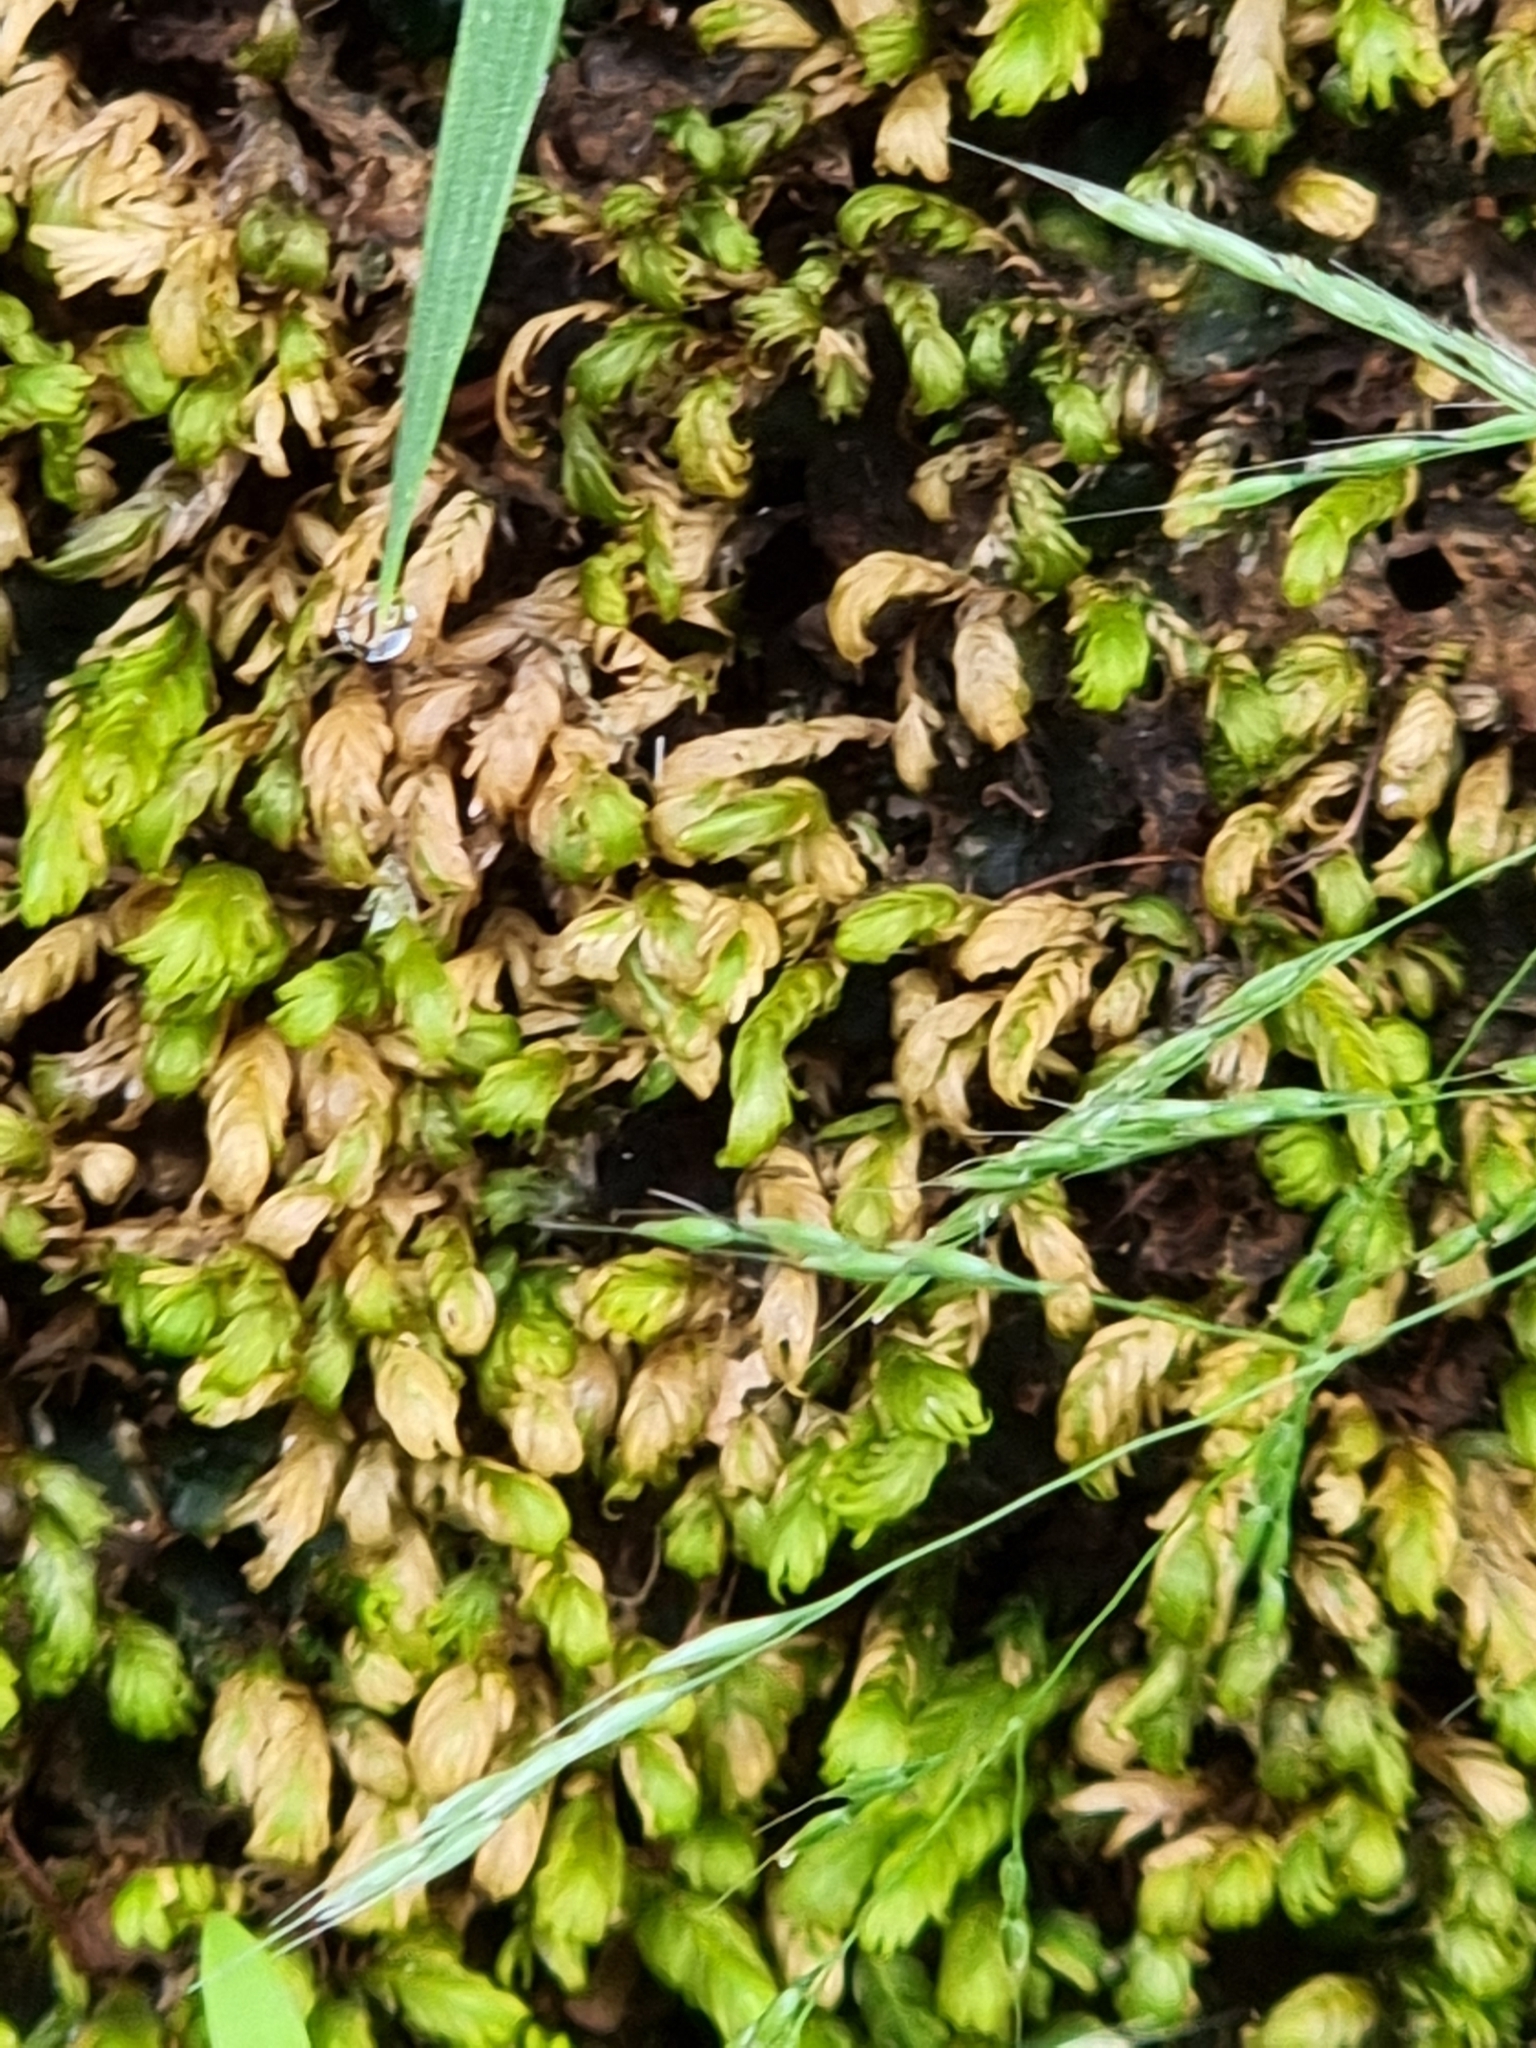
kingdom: Plantae
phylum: Bryophyta
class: Bryopsida
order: Dicranales
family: Fissidentaceae
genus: Fissidens
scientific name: Fissidens adianthoides
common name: Maidenhair pocket moss
